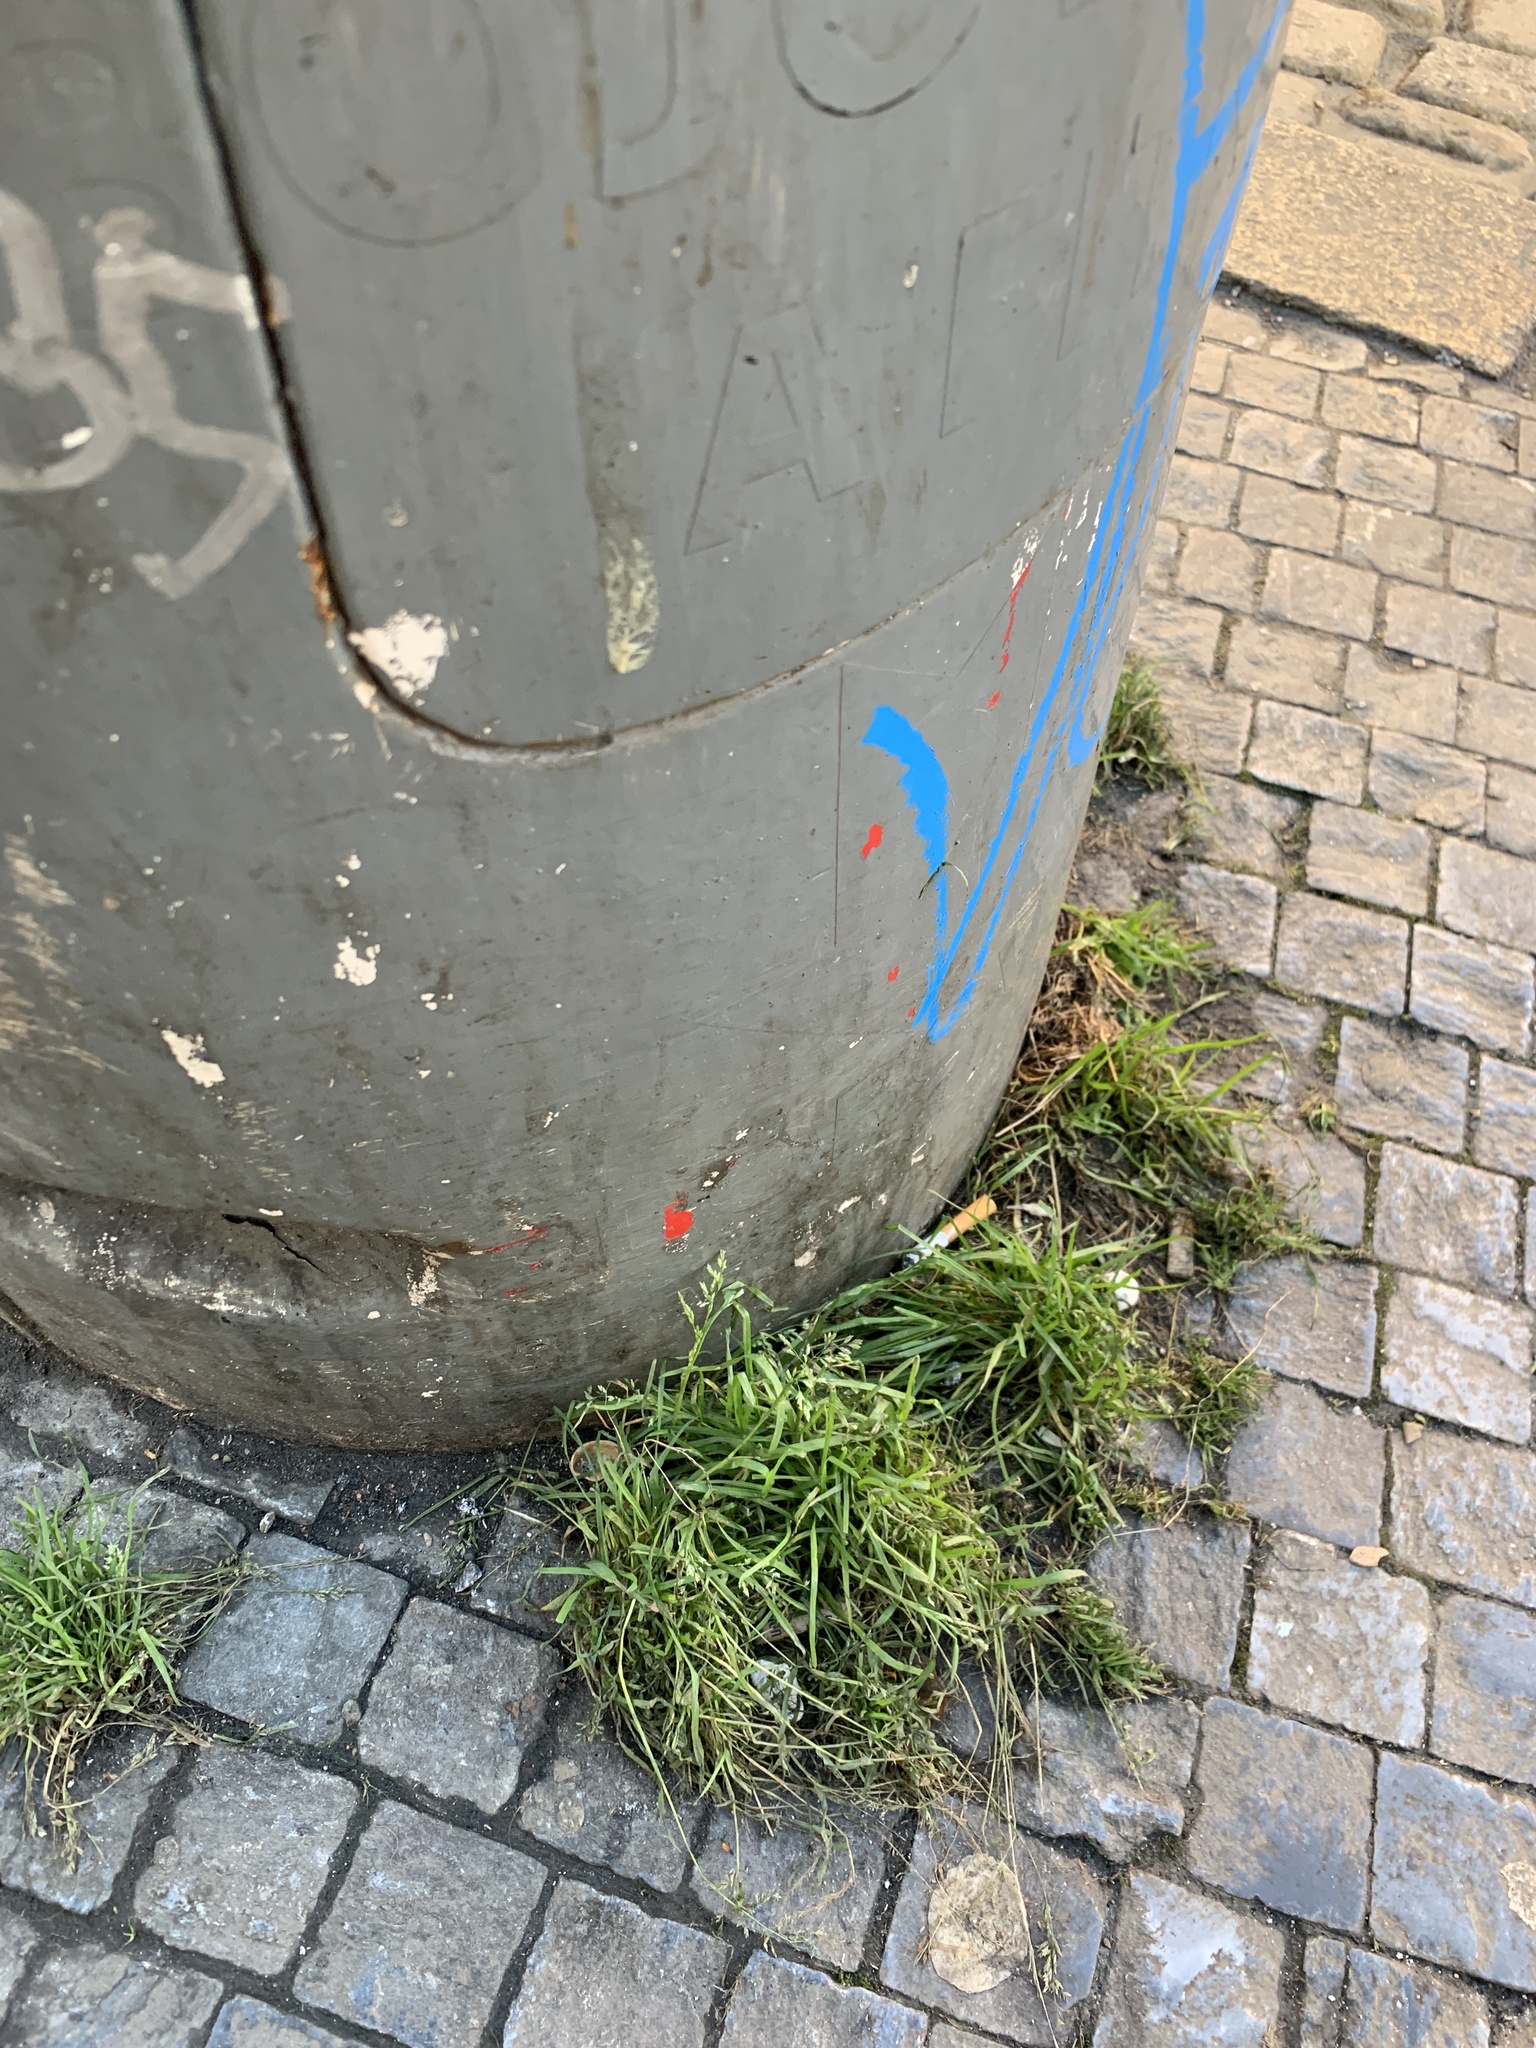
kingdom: Plantae
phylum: Tracheophyta
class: Liliopsida
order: Poales
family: Poaceae
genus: Poa
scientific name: Poa annua
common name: Annual bluegrass
